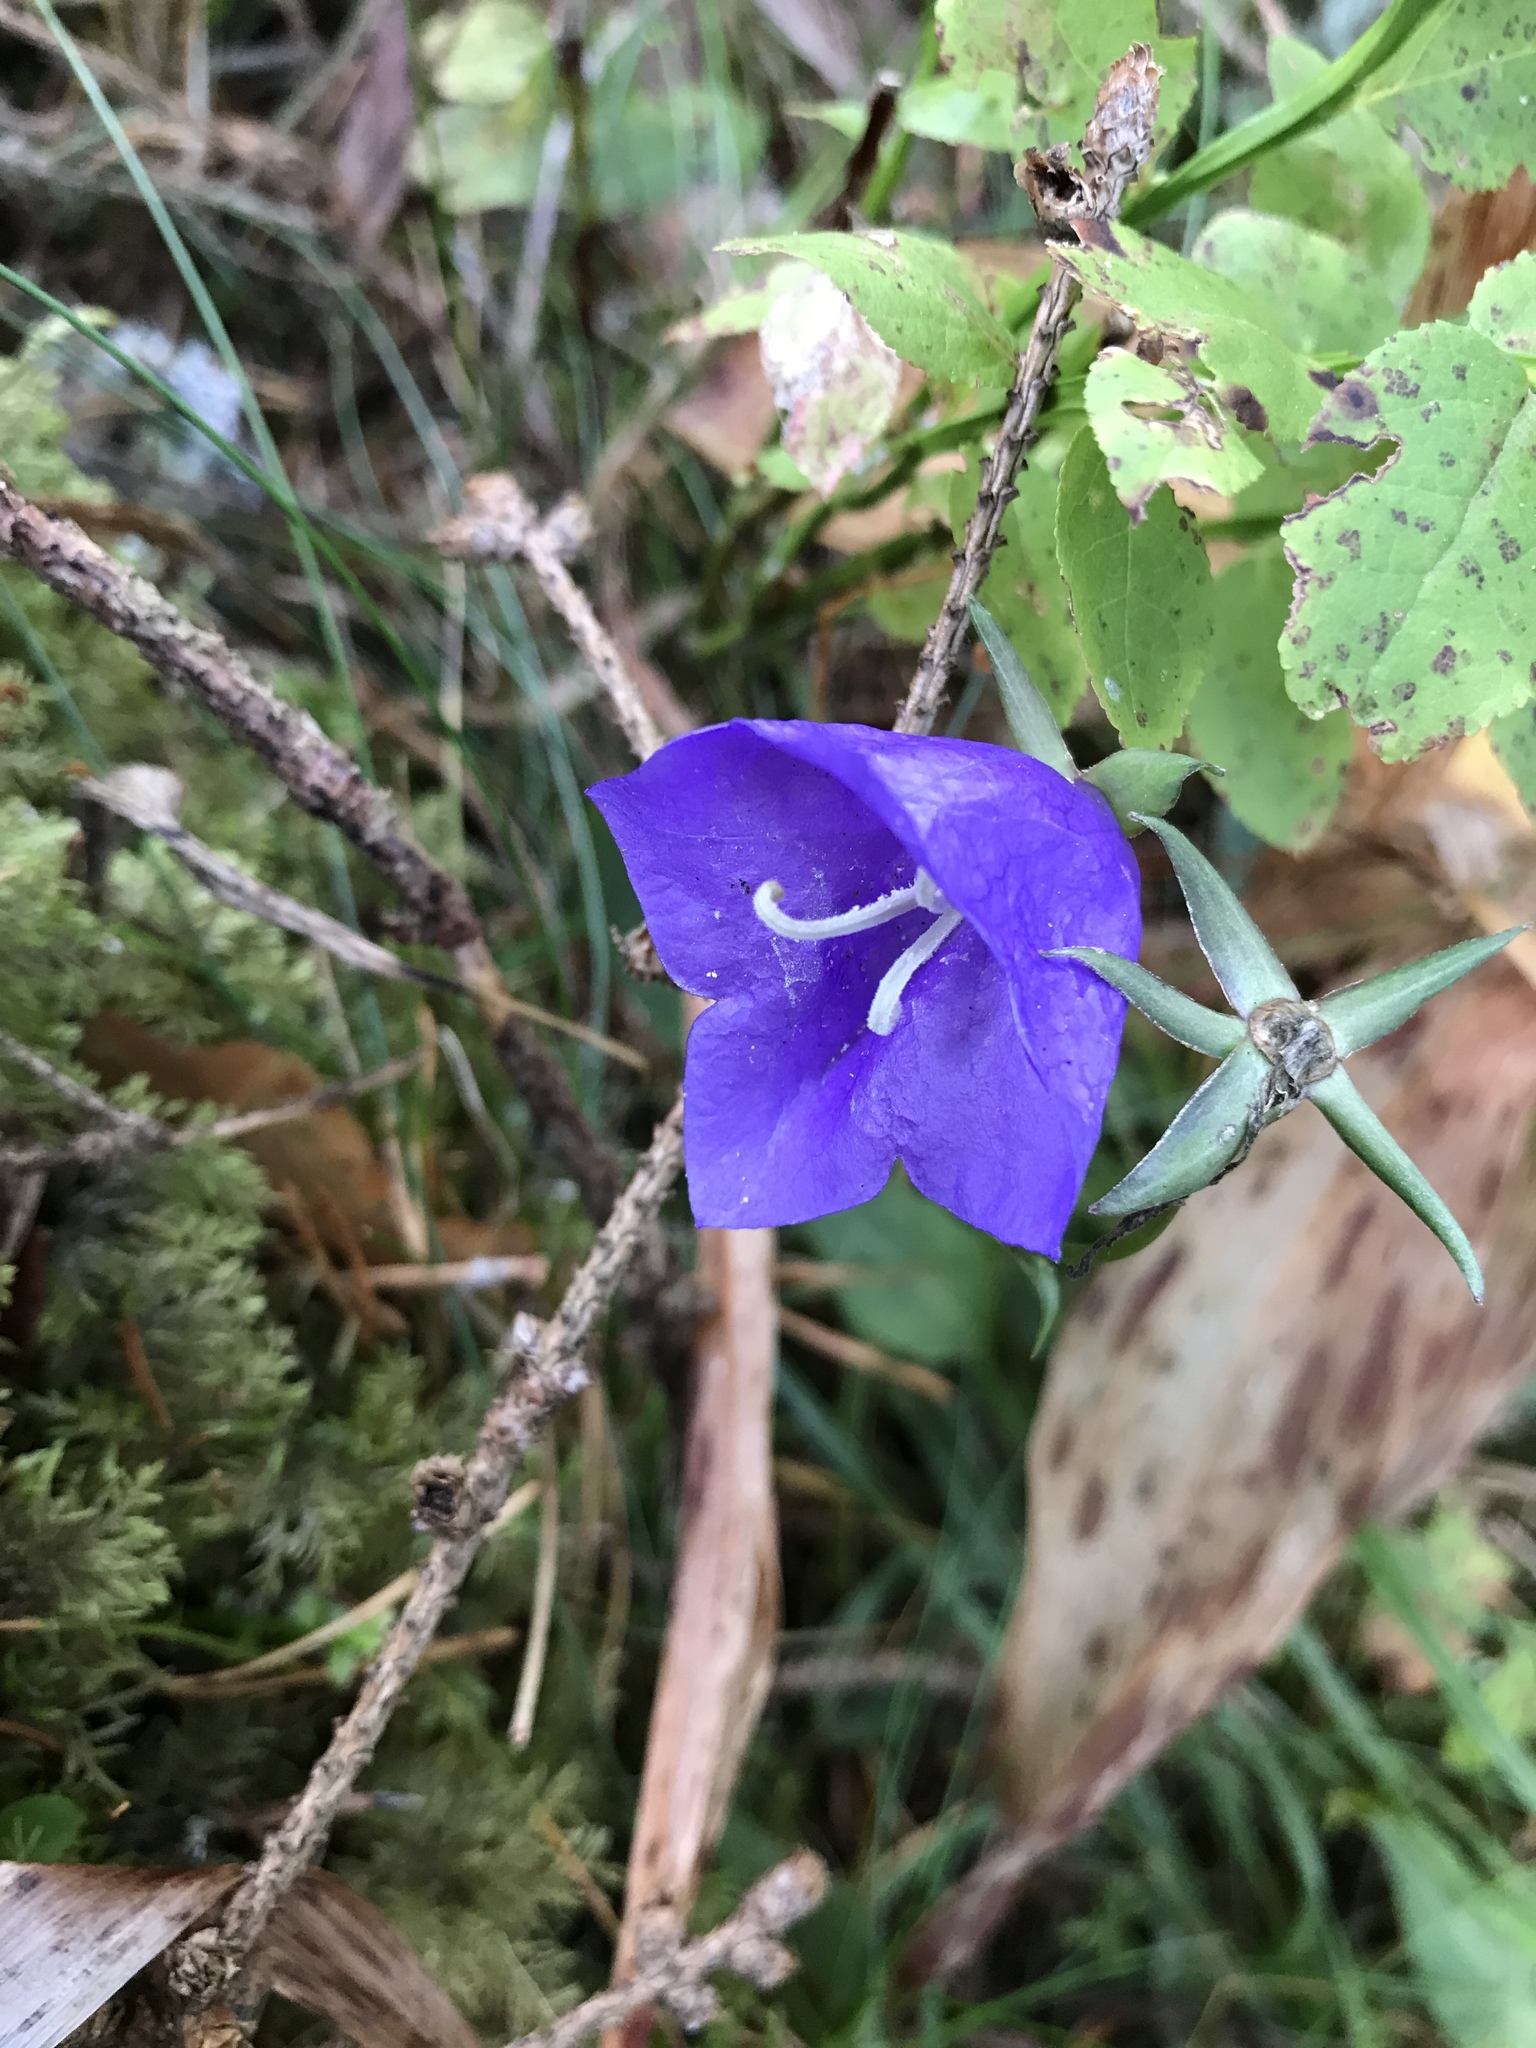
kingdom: Plantae
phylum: Tracheophyta
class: Magnoliopsida
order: Asterales
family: Campanulaceae
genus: Campanula
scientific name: Campanula persicifolia
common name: Peach-leaved bellflower
